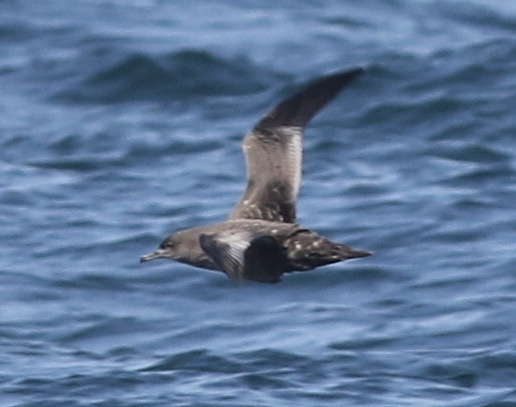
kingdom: Animalia
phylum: Chordata
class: Aves
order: Procellariiformes
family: Procellariidae
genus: Puffinus
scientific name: Puffinus griseus
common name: Sooty shearwater
